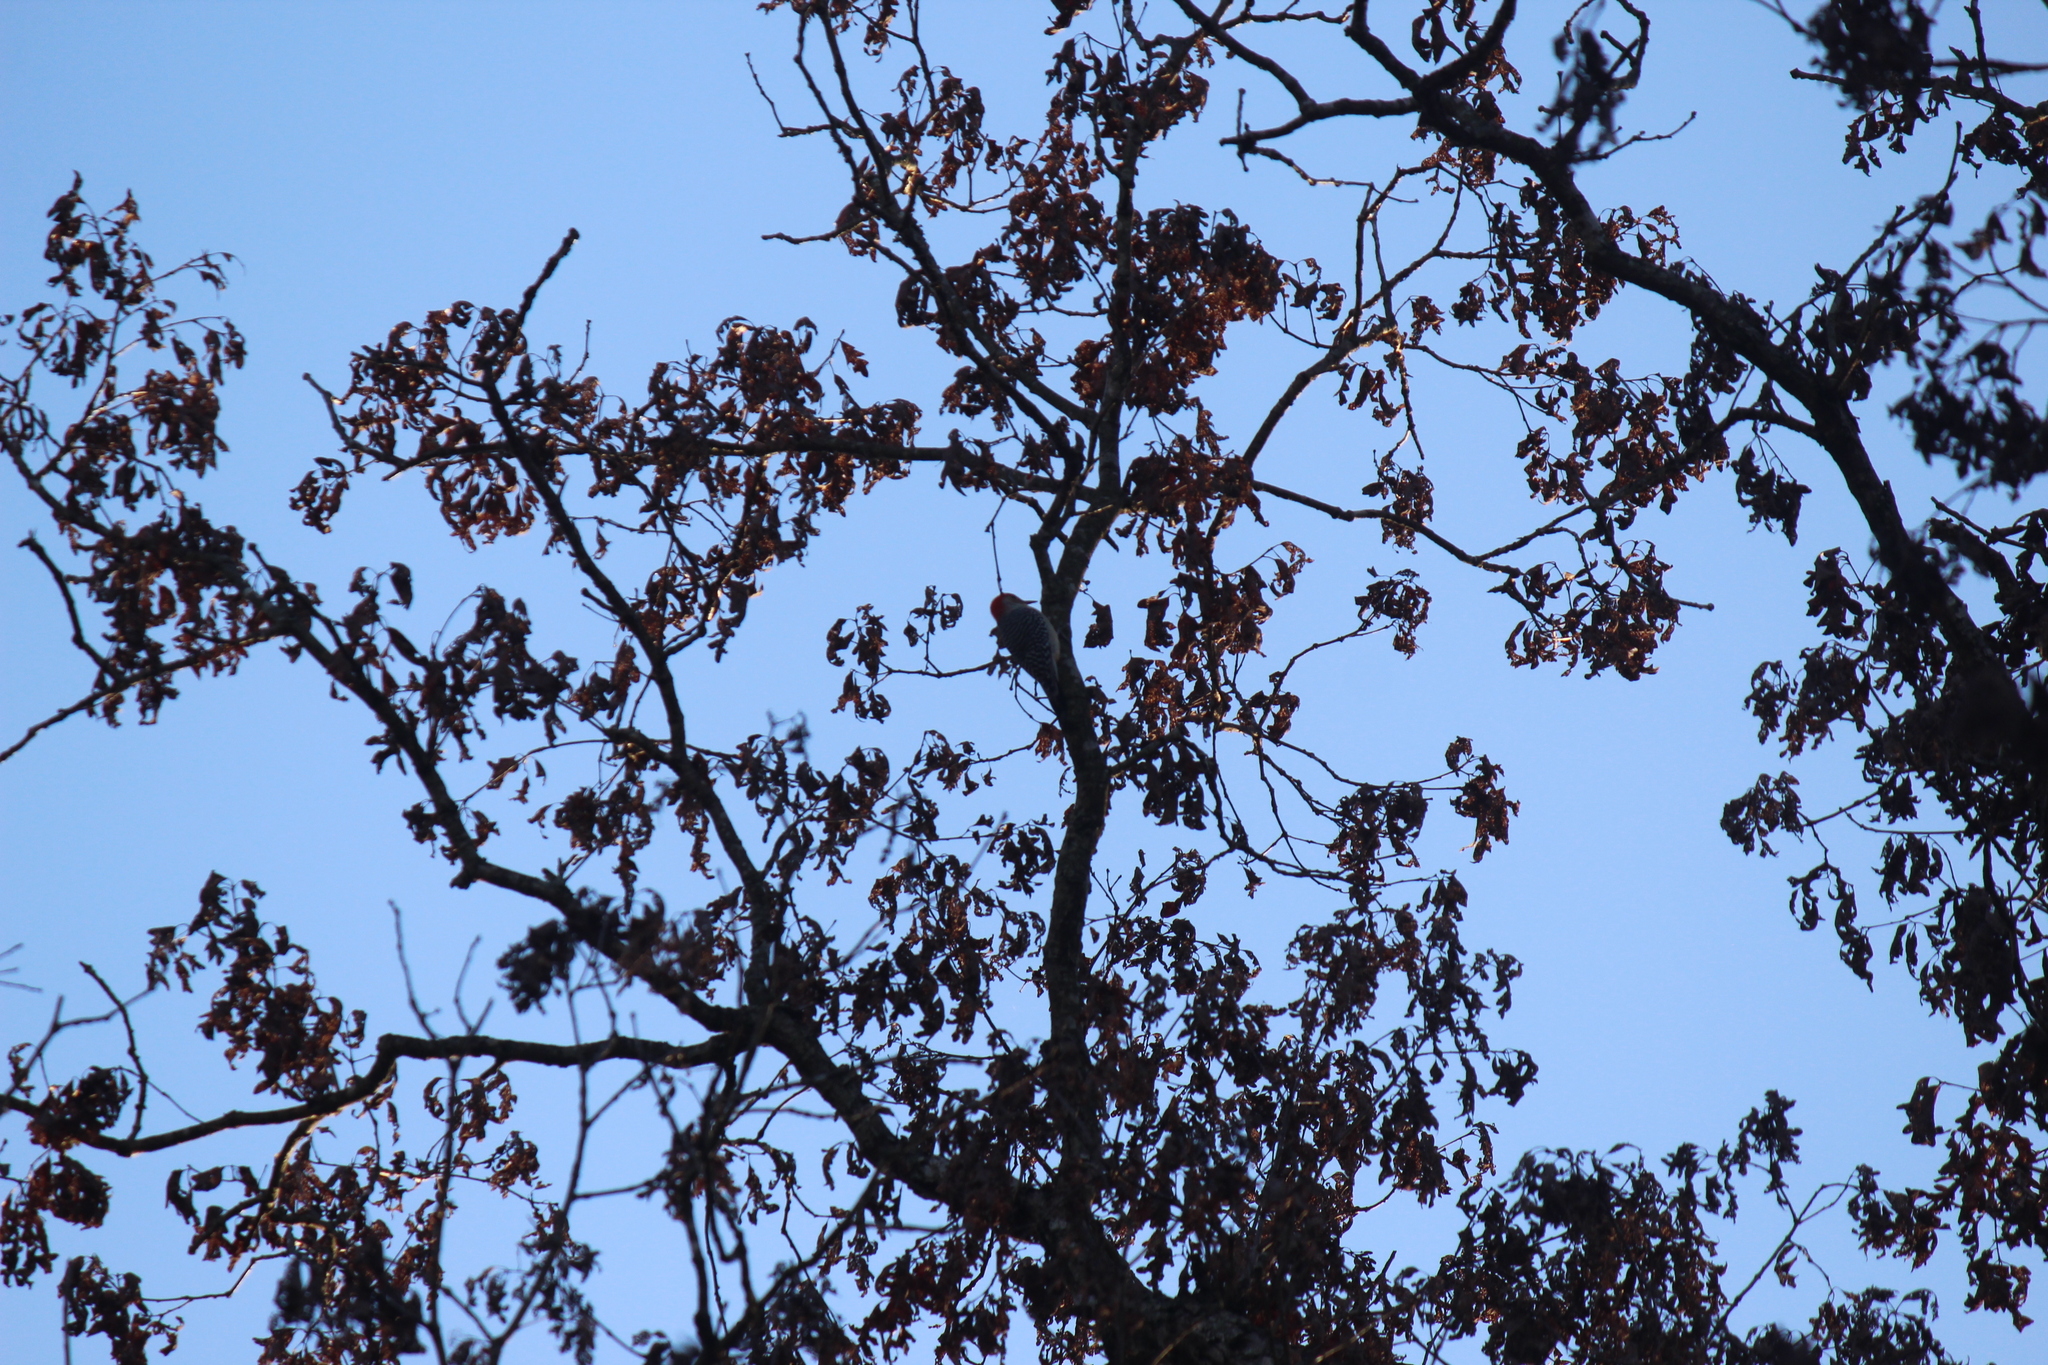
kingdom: Animalia
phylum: Chordata
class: Aves
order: Piciformes
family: Picidae
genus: Melanerpes
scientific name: Melanerpes carolinus
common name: Red-bellied woodpecker
